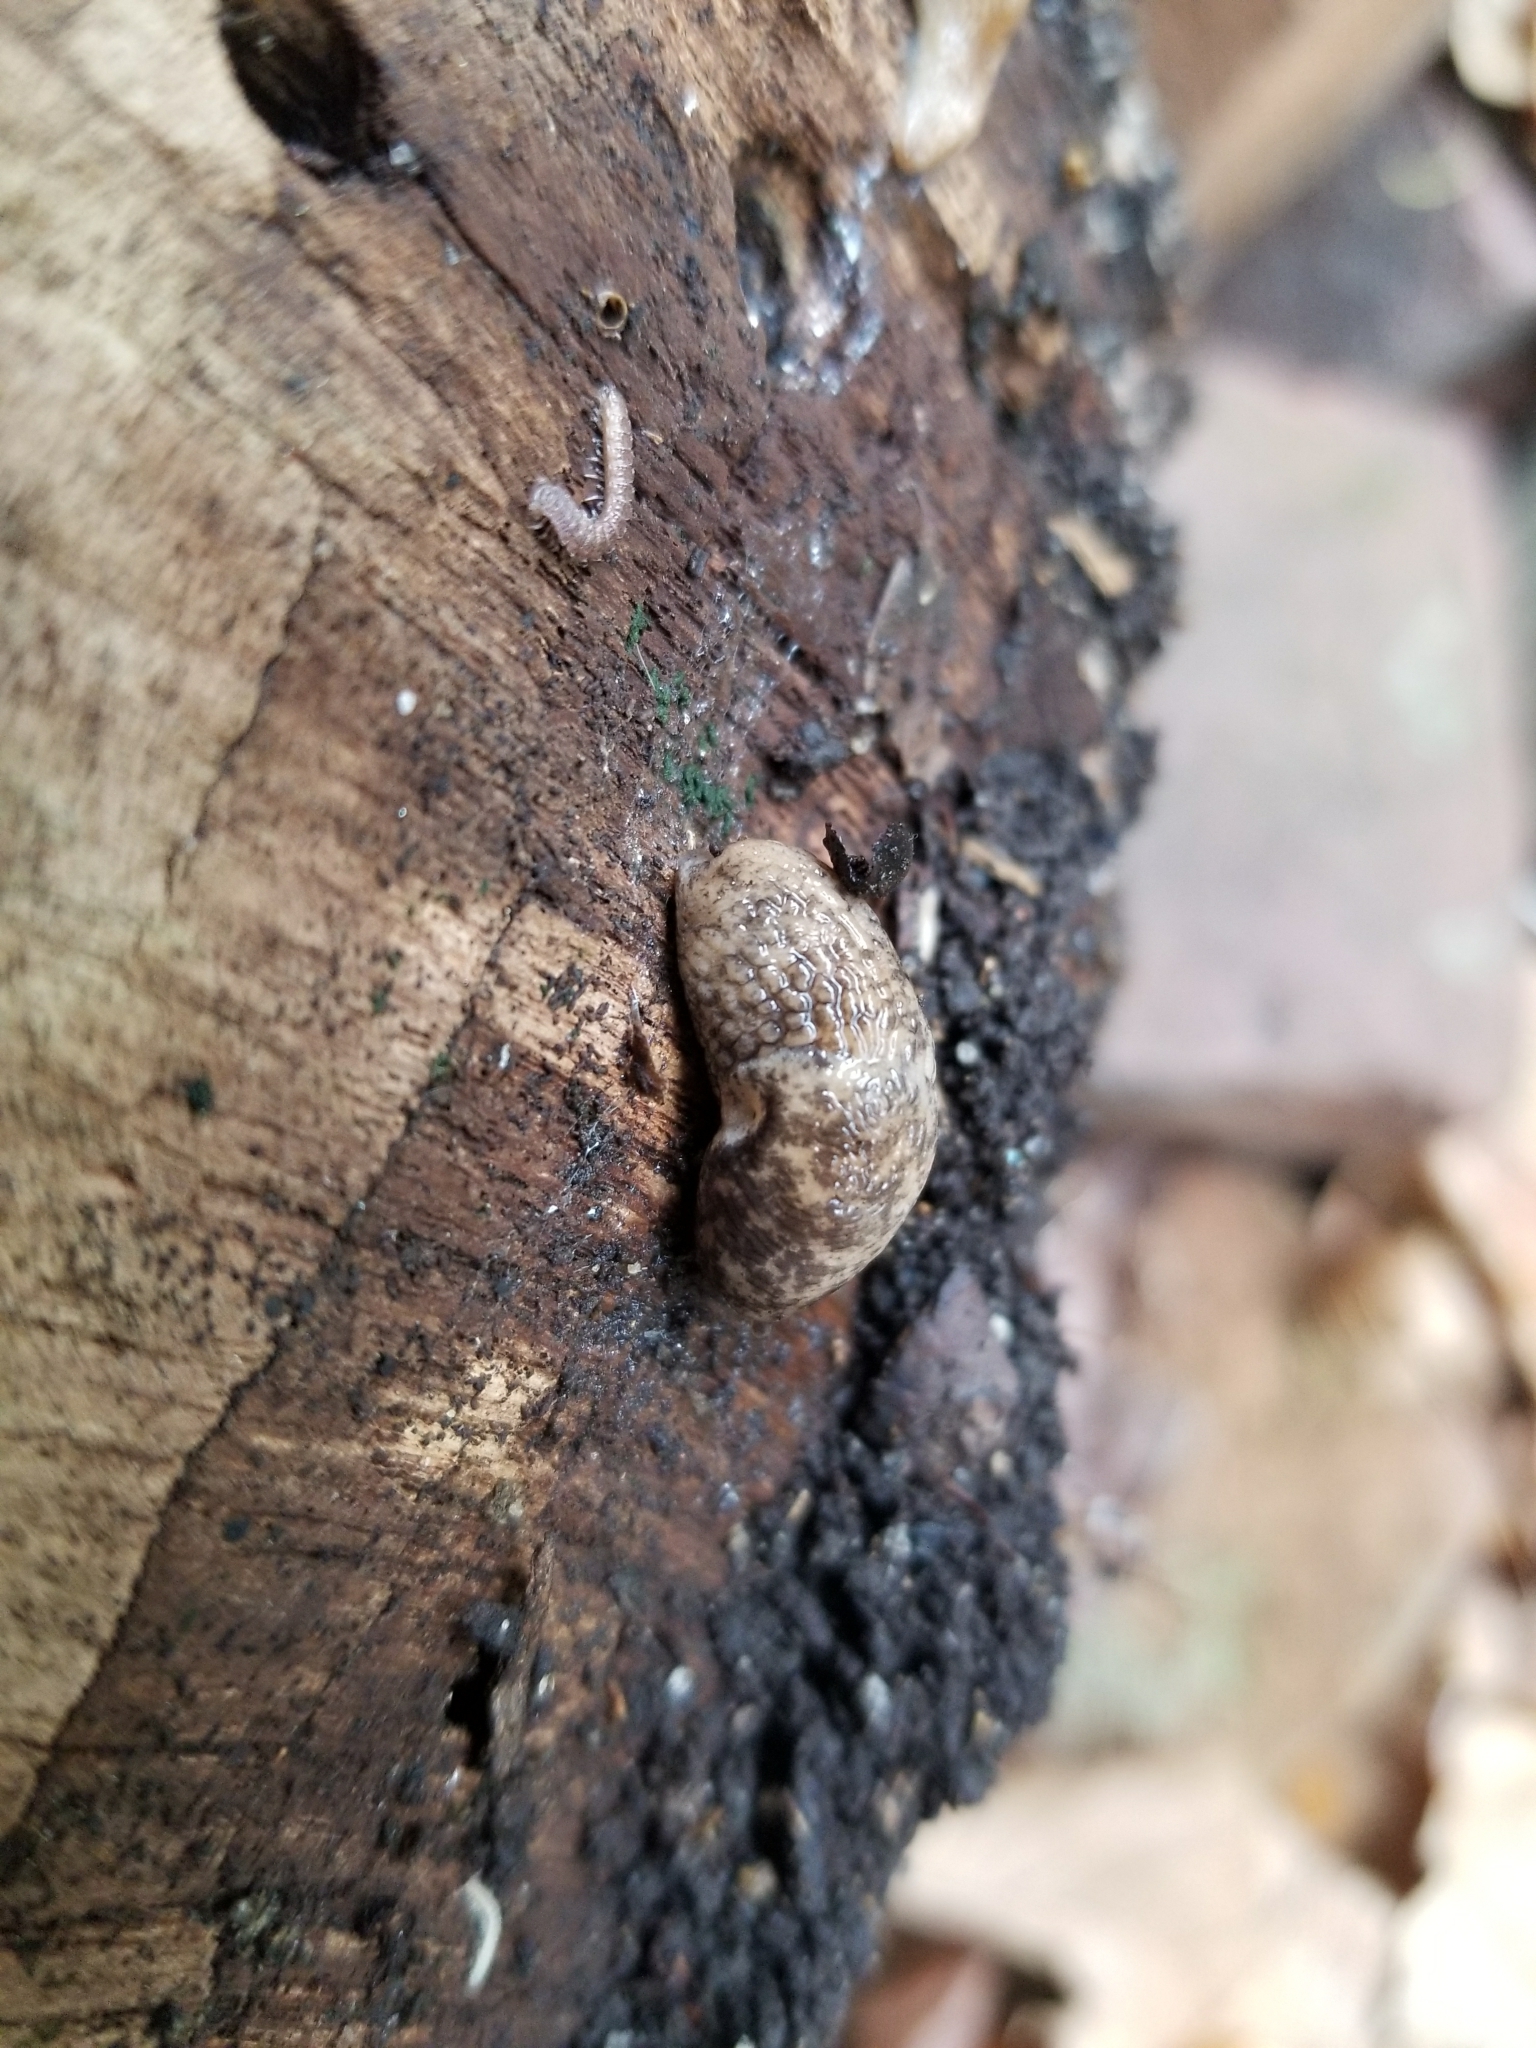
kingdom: Animalia
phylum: Mollusca
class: Gastropoda
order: Stylommatophora
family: Agriolimacidae
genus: Deroceras
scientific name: Deroceras reticulatum
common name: Gray field slug
